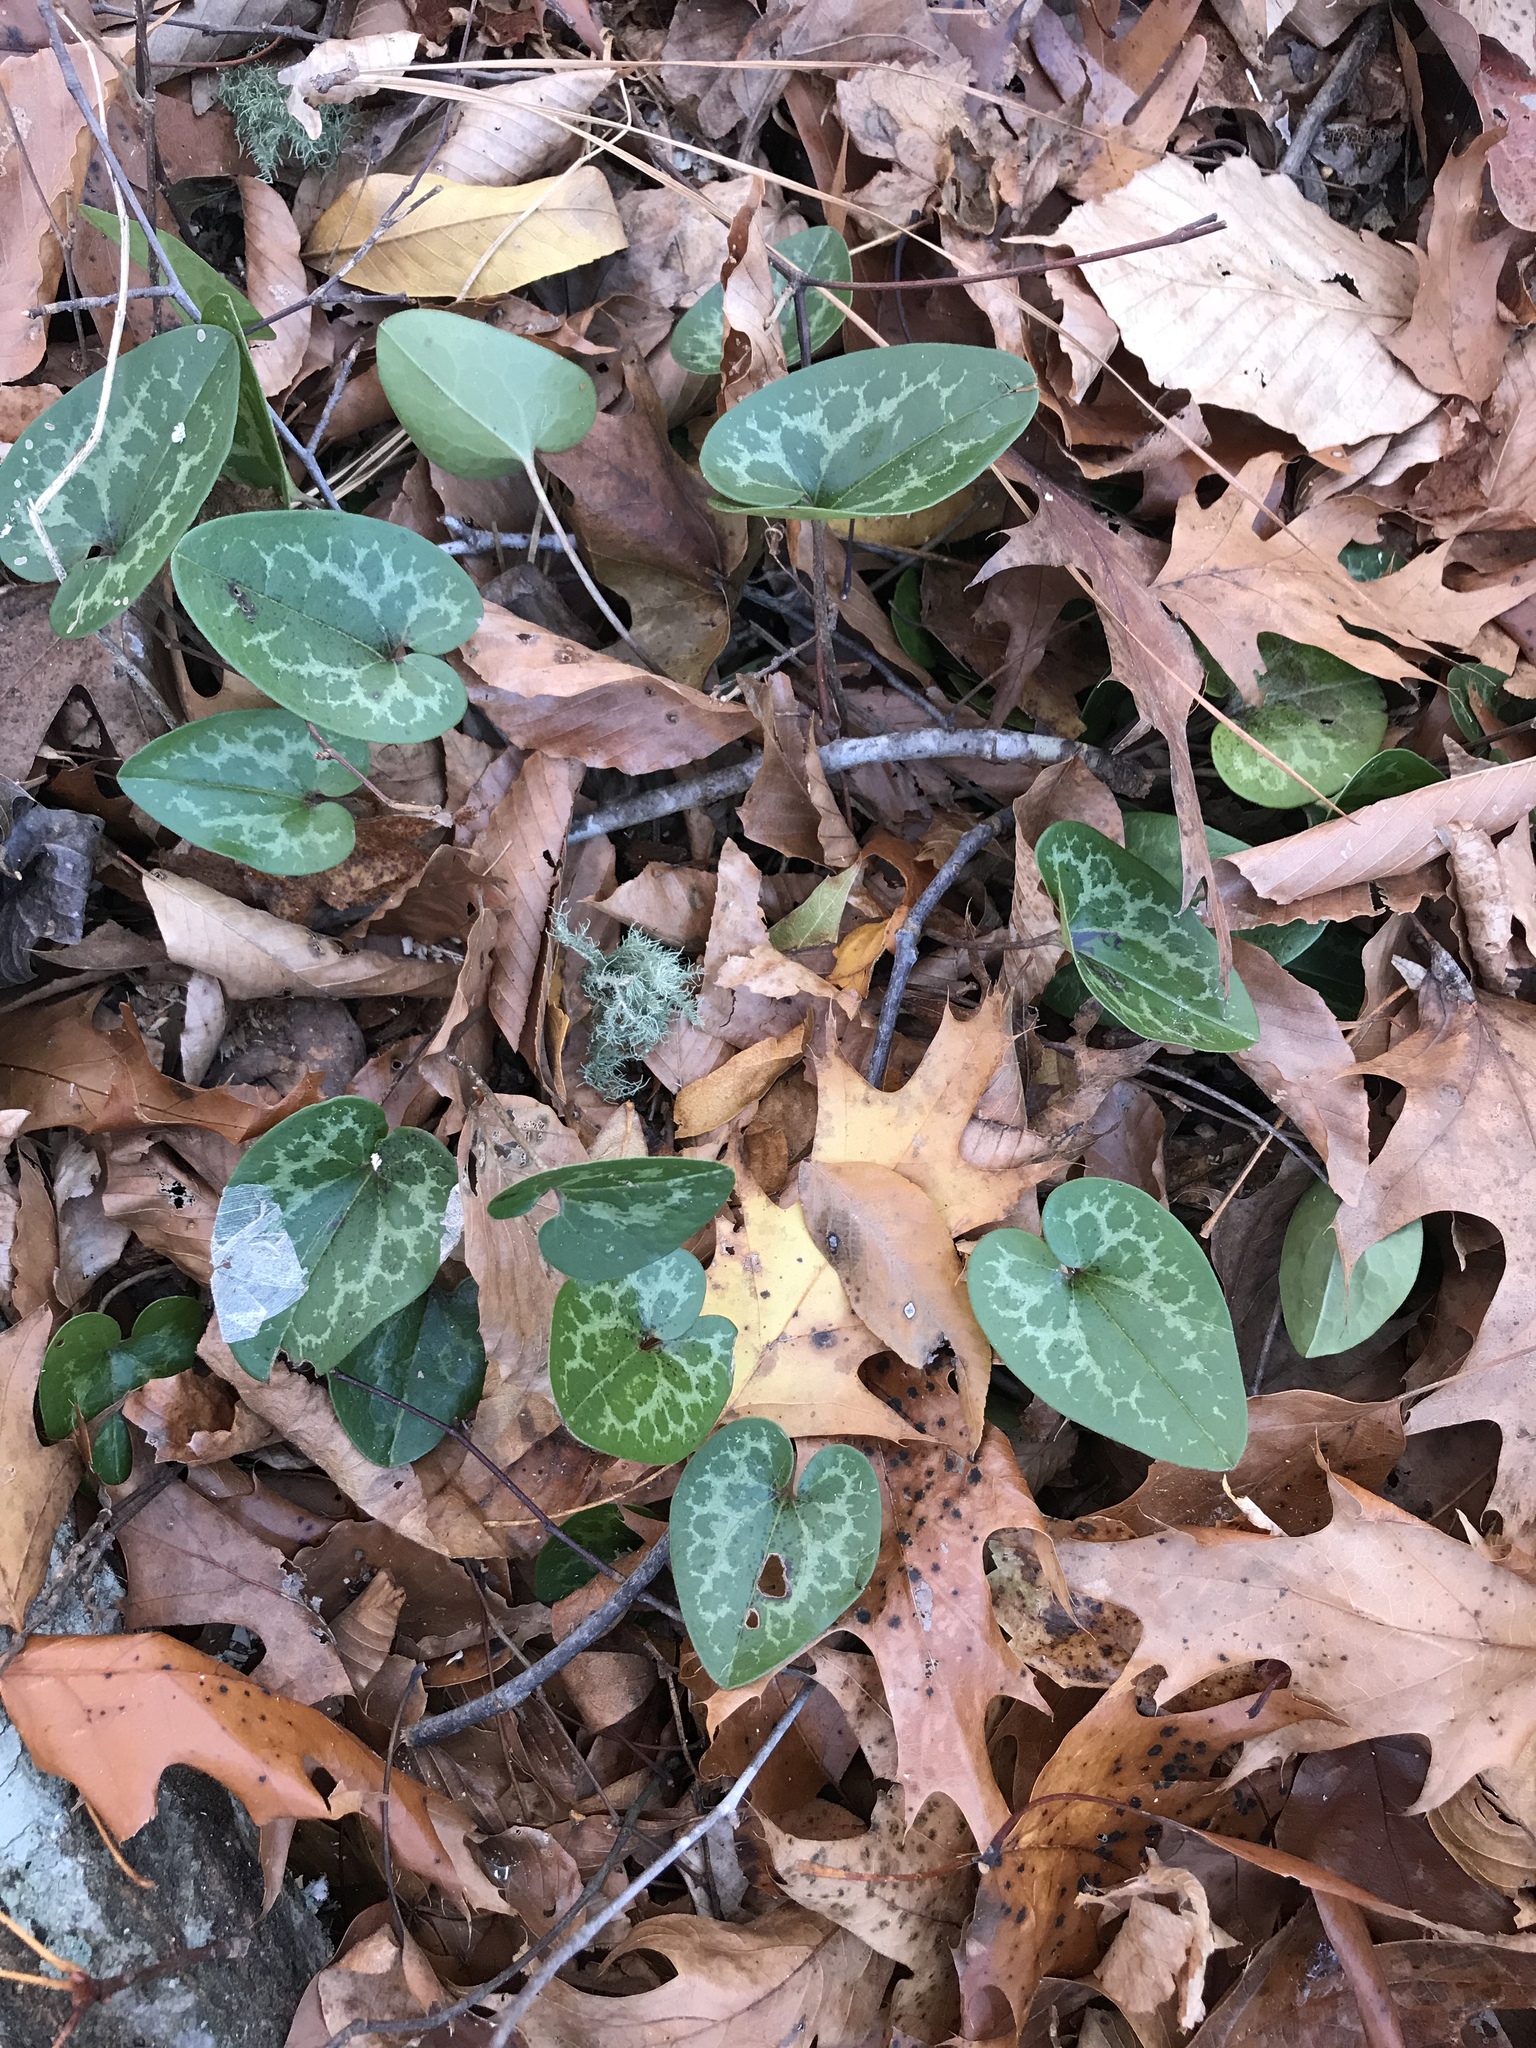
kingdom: Plantae
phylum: Tracheophyta
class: Magnoliopsida
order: Piperales
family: Aristolochiaceae
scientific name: Aristolochiaceae
